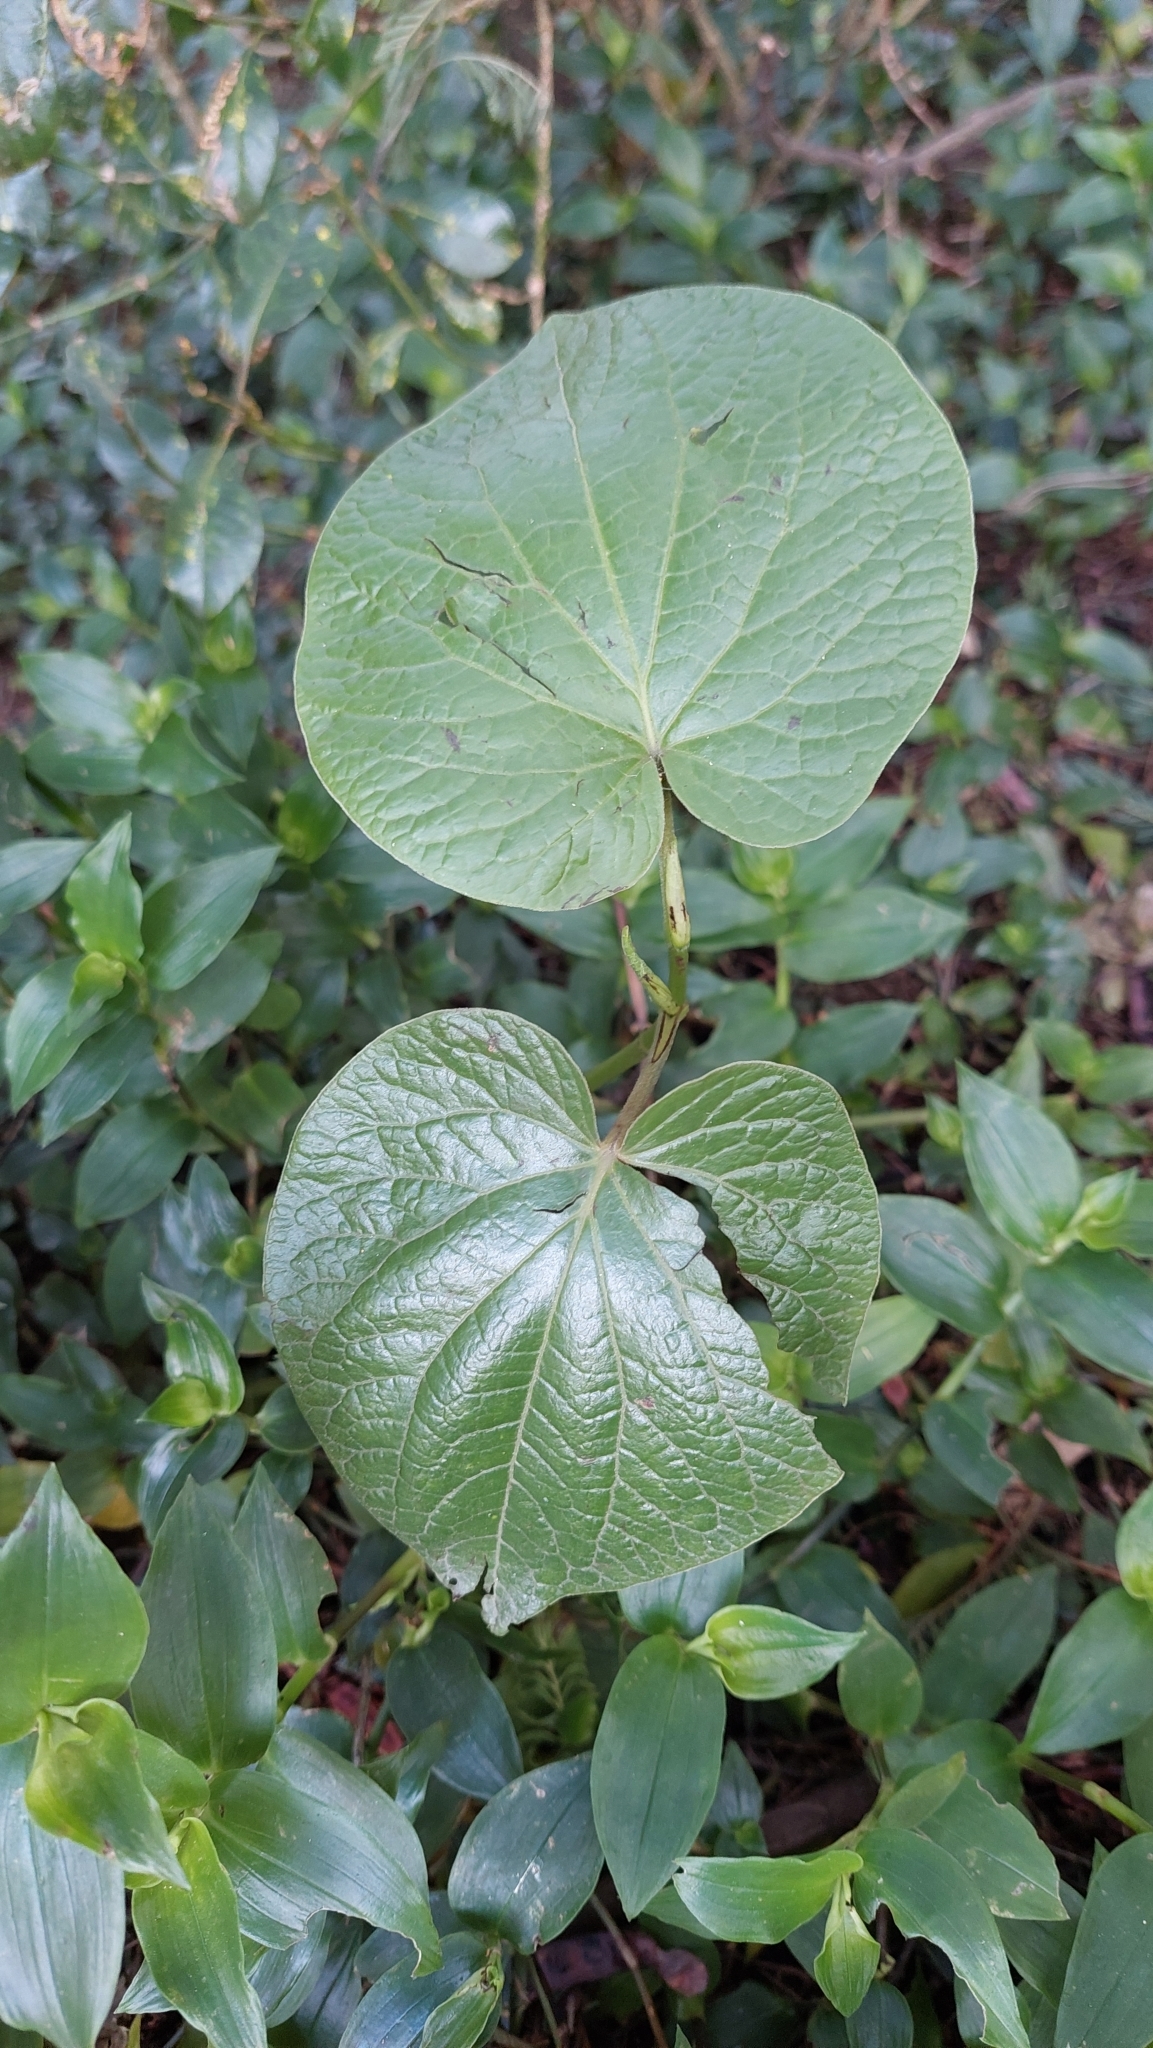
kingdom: Plantae
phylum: Tracheophyta
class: Magnoliopsida
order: Piperales
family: Piperaceae
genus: Piper
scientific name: Piper barbatum
